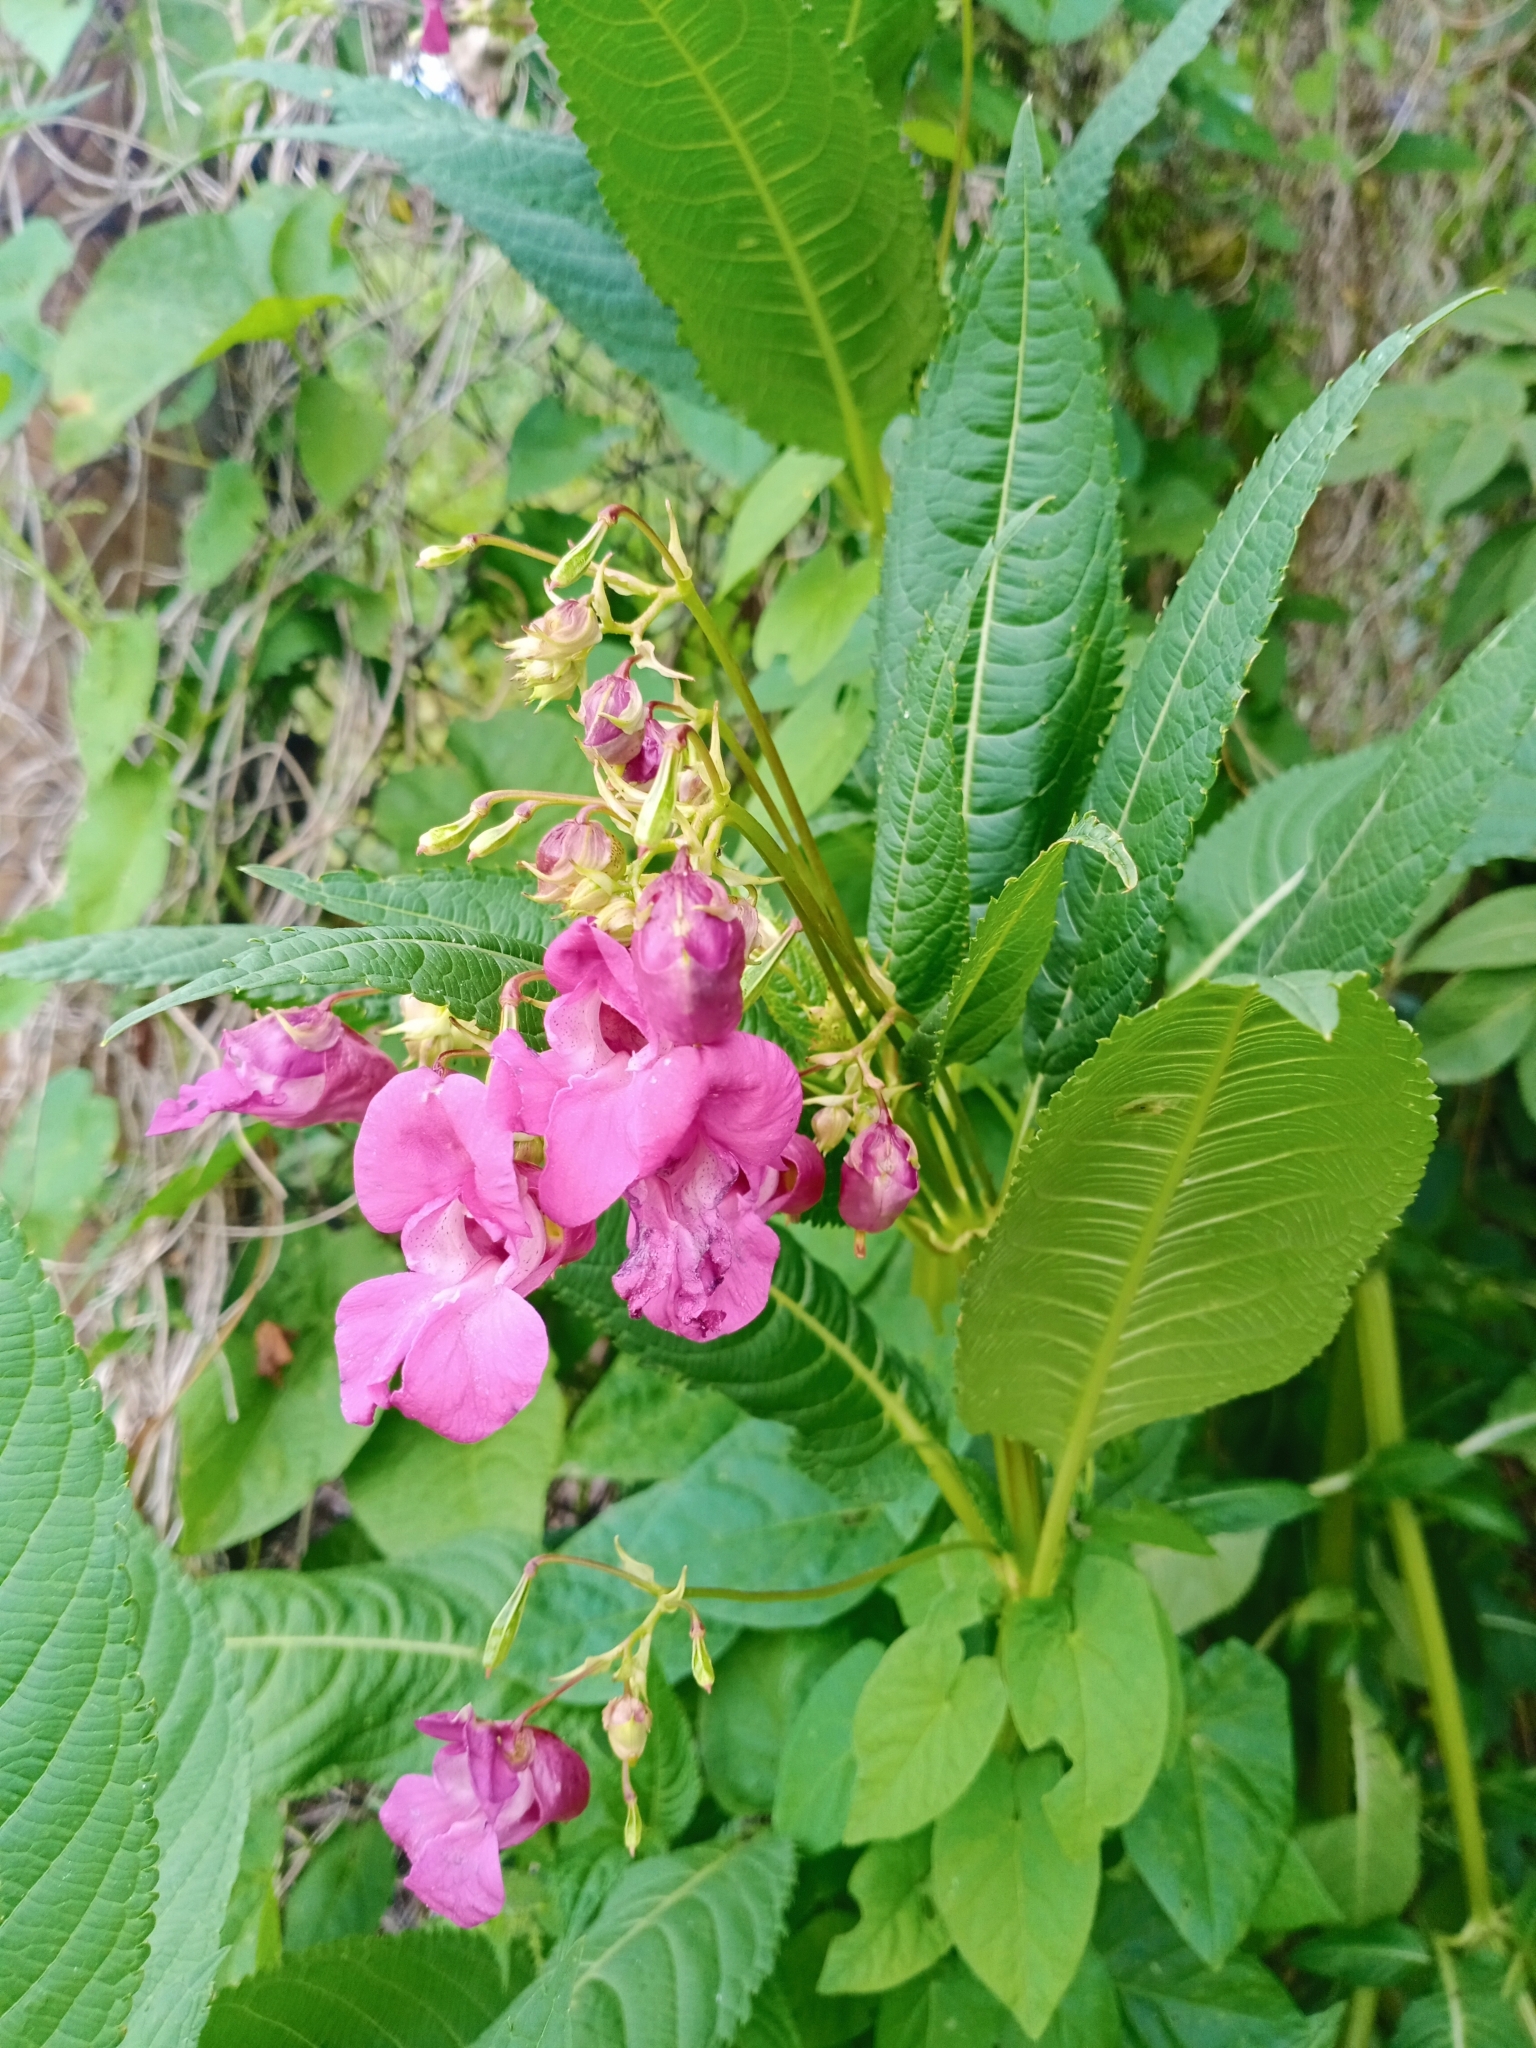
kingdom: Plantae
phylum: Tracheophyta
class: Magnoliopsida
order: Ericales
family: Balsaminaceae
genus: Impatiens
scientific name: Impatiens glandulifera
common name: Himalayan balsam
